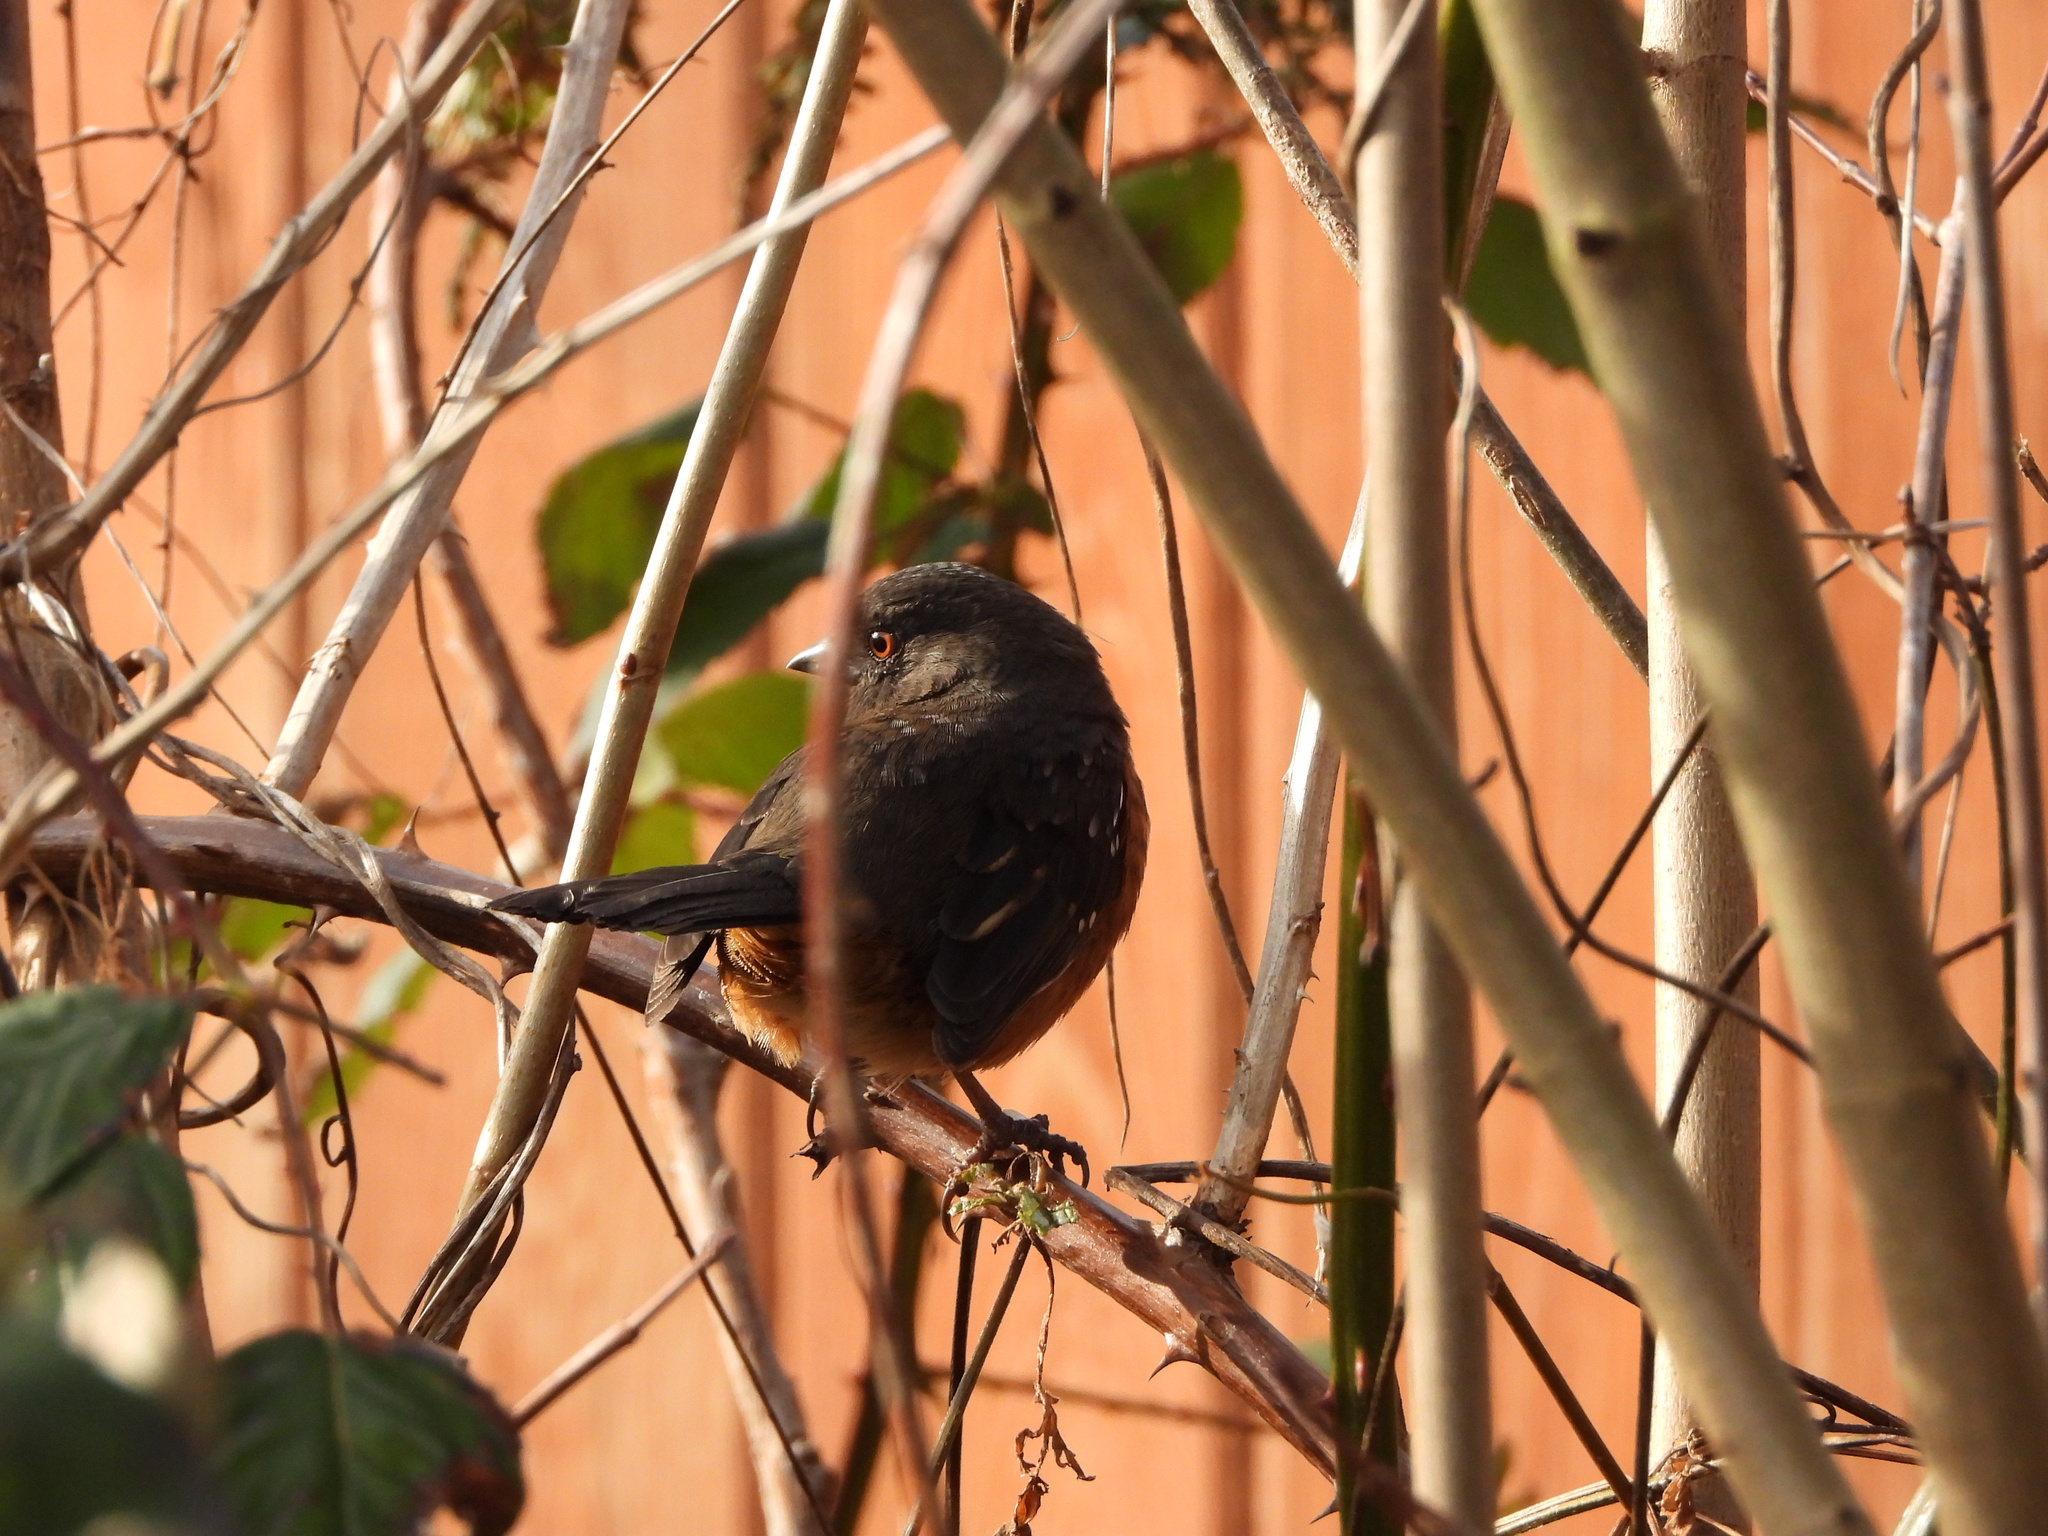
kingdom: Animalia
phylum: Chordata
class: Aves
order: Passeriformes
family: Passerellidae
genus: Pipilo
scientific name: Pipilo maculatus
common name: Spotted towhee
